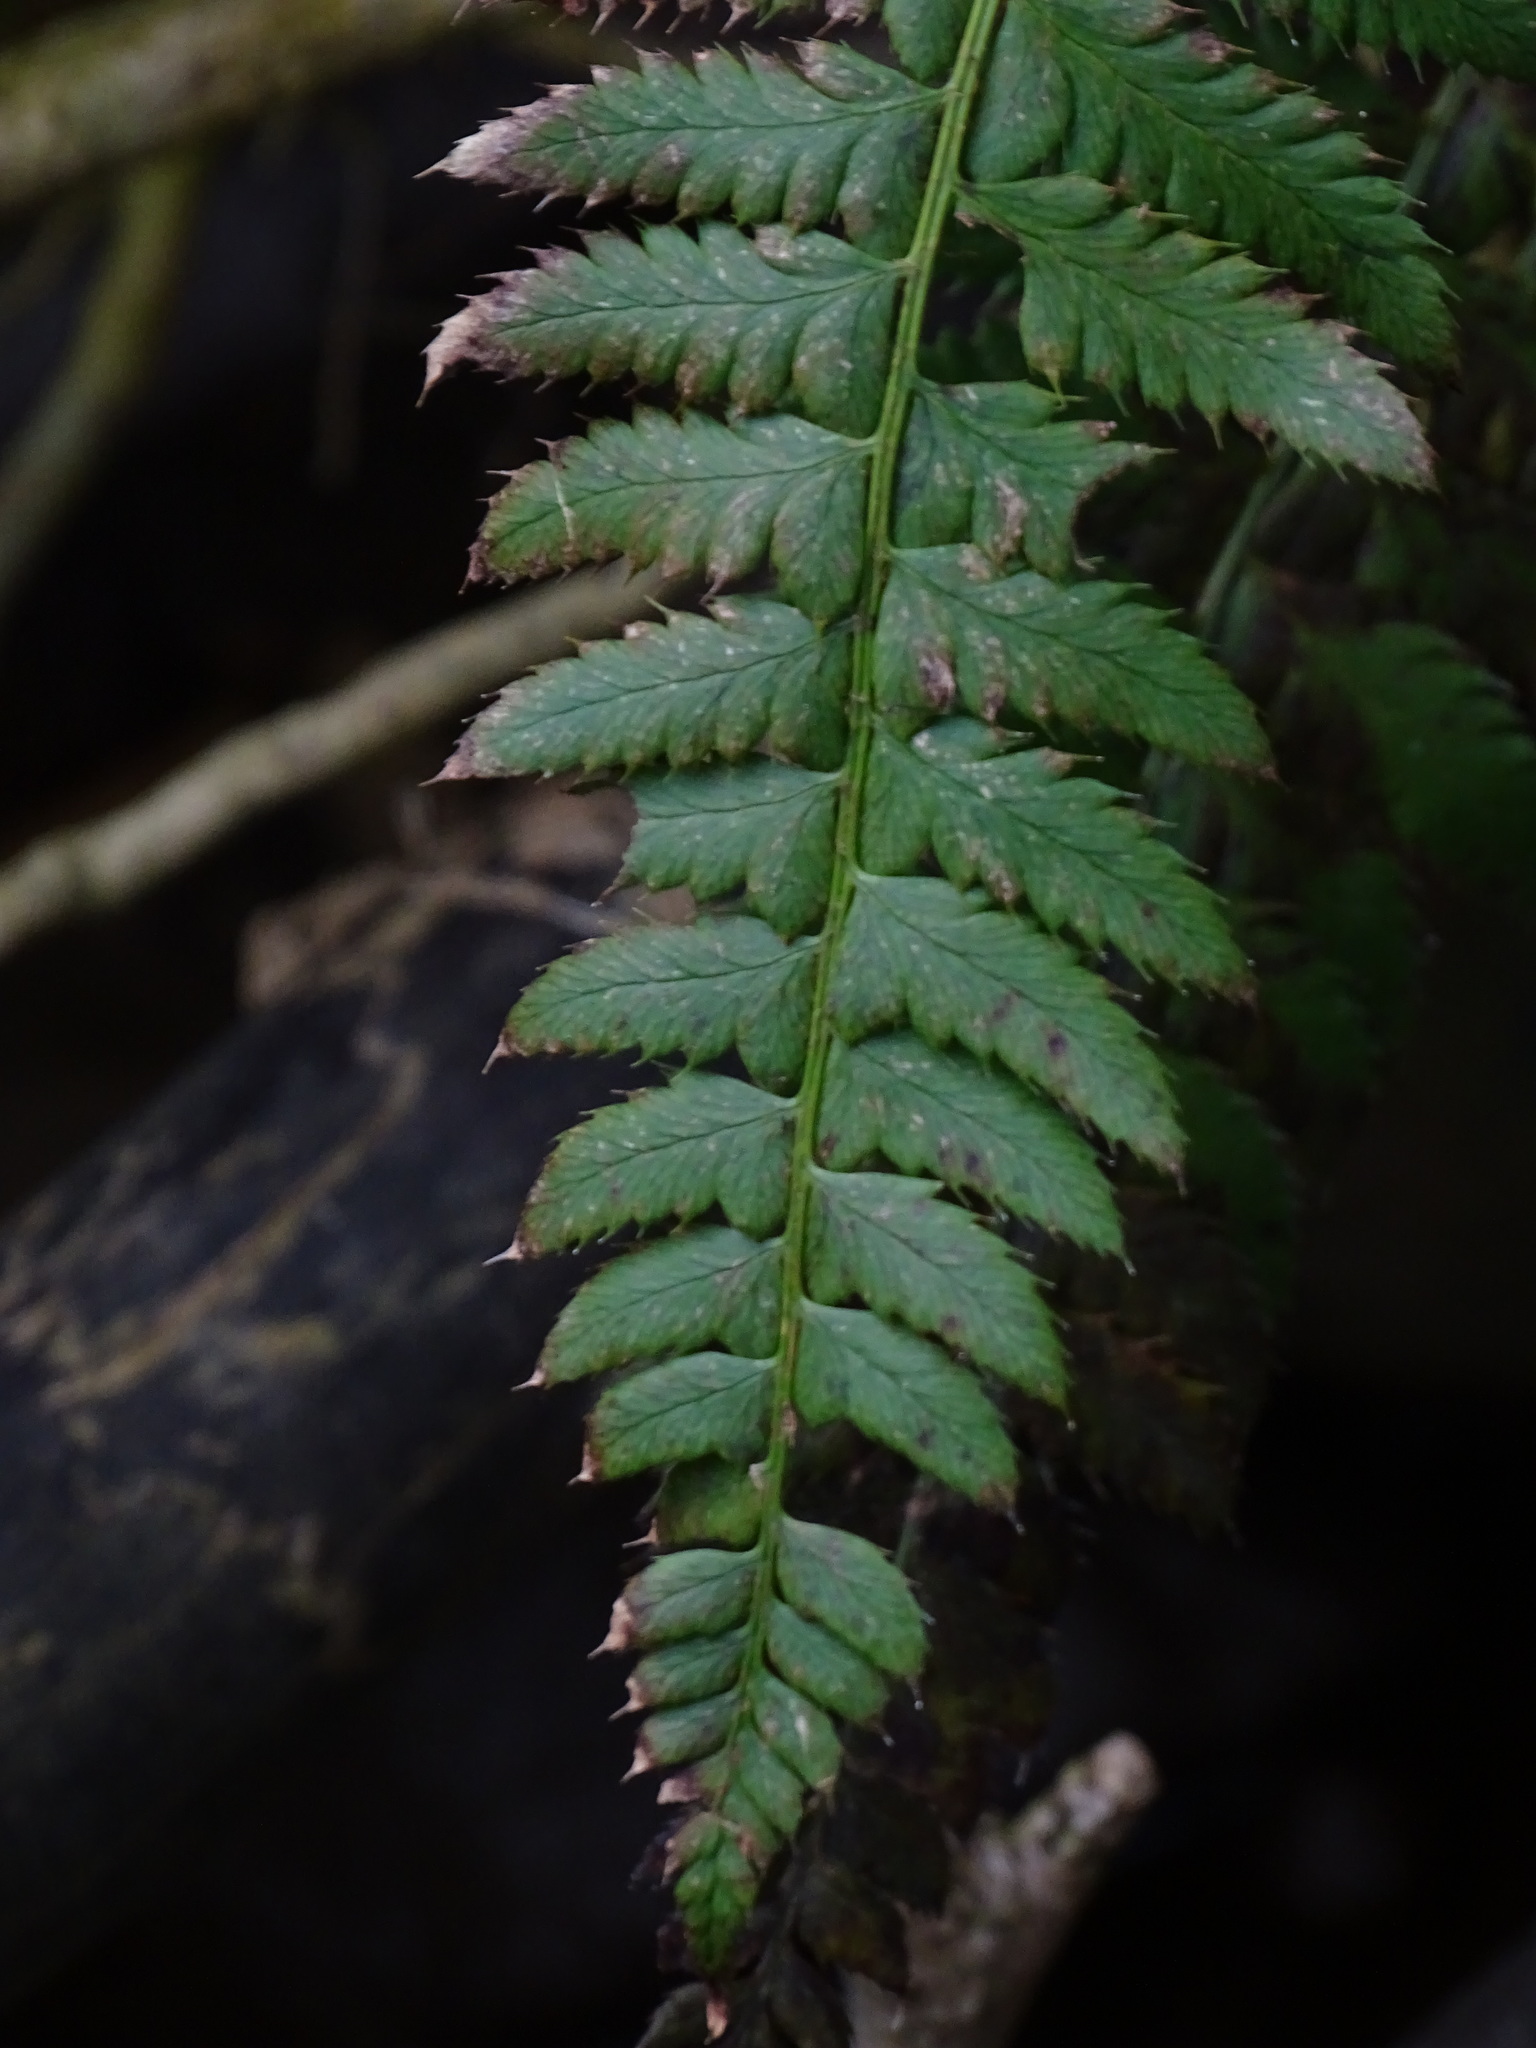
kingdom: Plantae
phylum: Tracheophyta
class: Polypodiopsida
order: Polypodiales
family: Dryopteridaceae
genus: Polystichum
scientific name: Polystichum aculeatum
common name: Hard shield-fern
